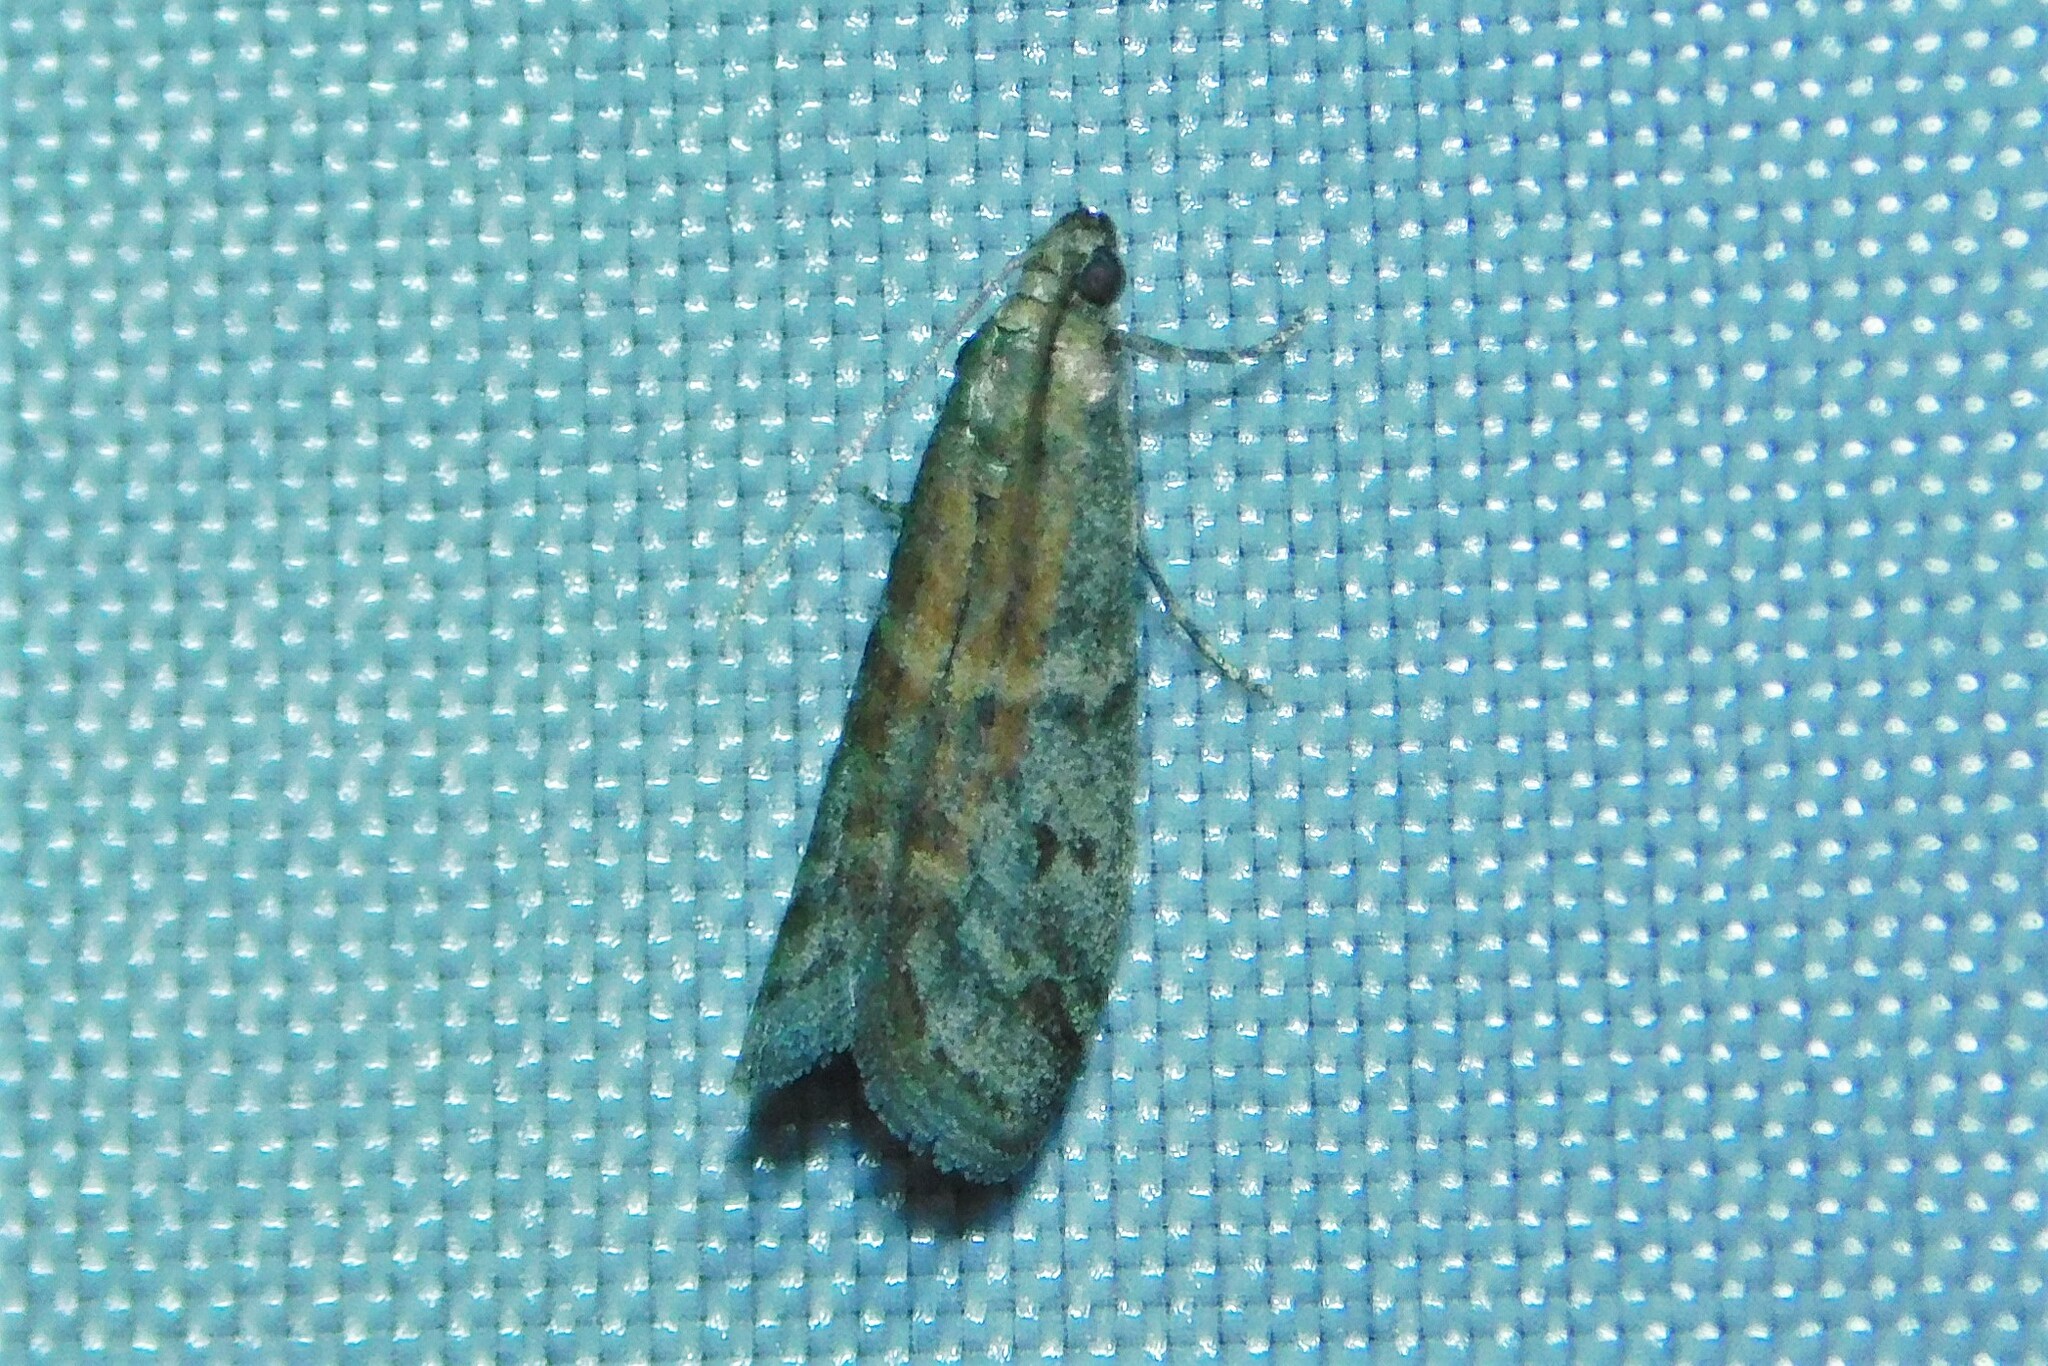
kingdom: Animalia
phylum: Arthropoda
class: Insecta
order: Lepidoptera
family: Pyralidae
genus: Ephestia
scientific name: Ephestia
